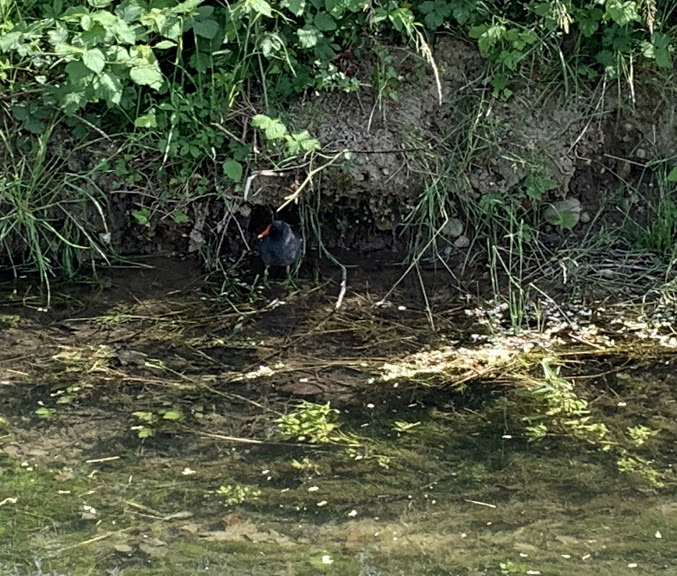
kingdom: Animalia
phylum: Chordata
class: Aves
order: Gruiformes
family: Rallidae
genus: Gallinula
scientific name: Gallinula chloropus
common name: Common moorhen
